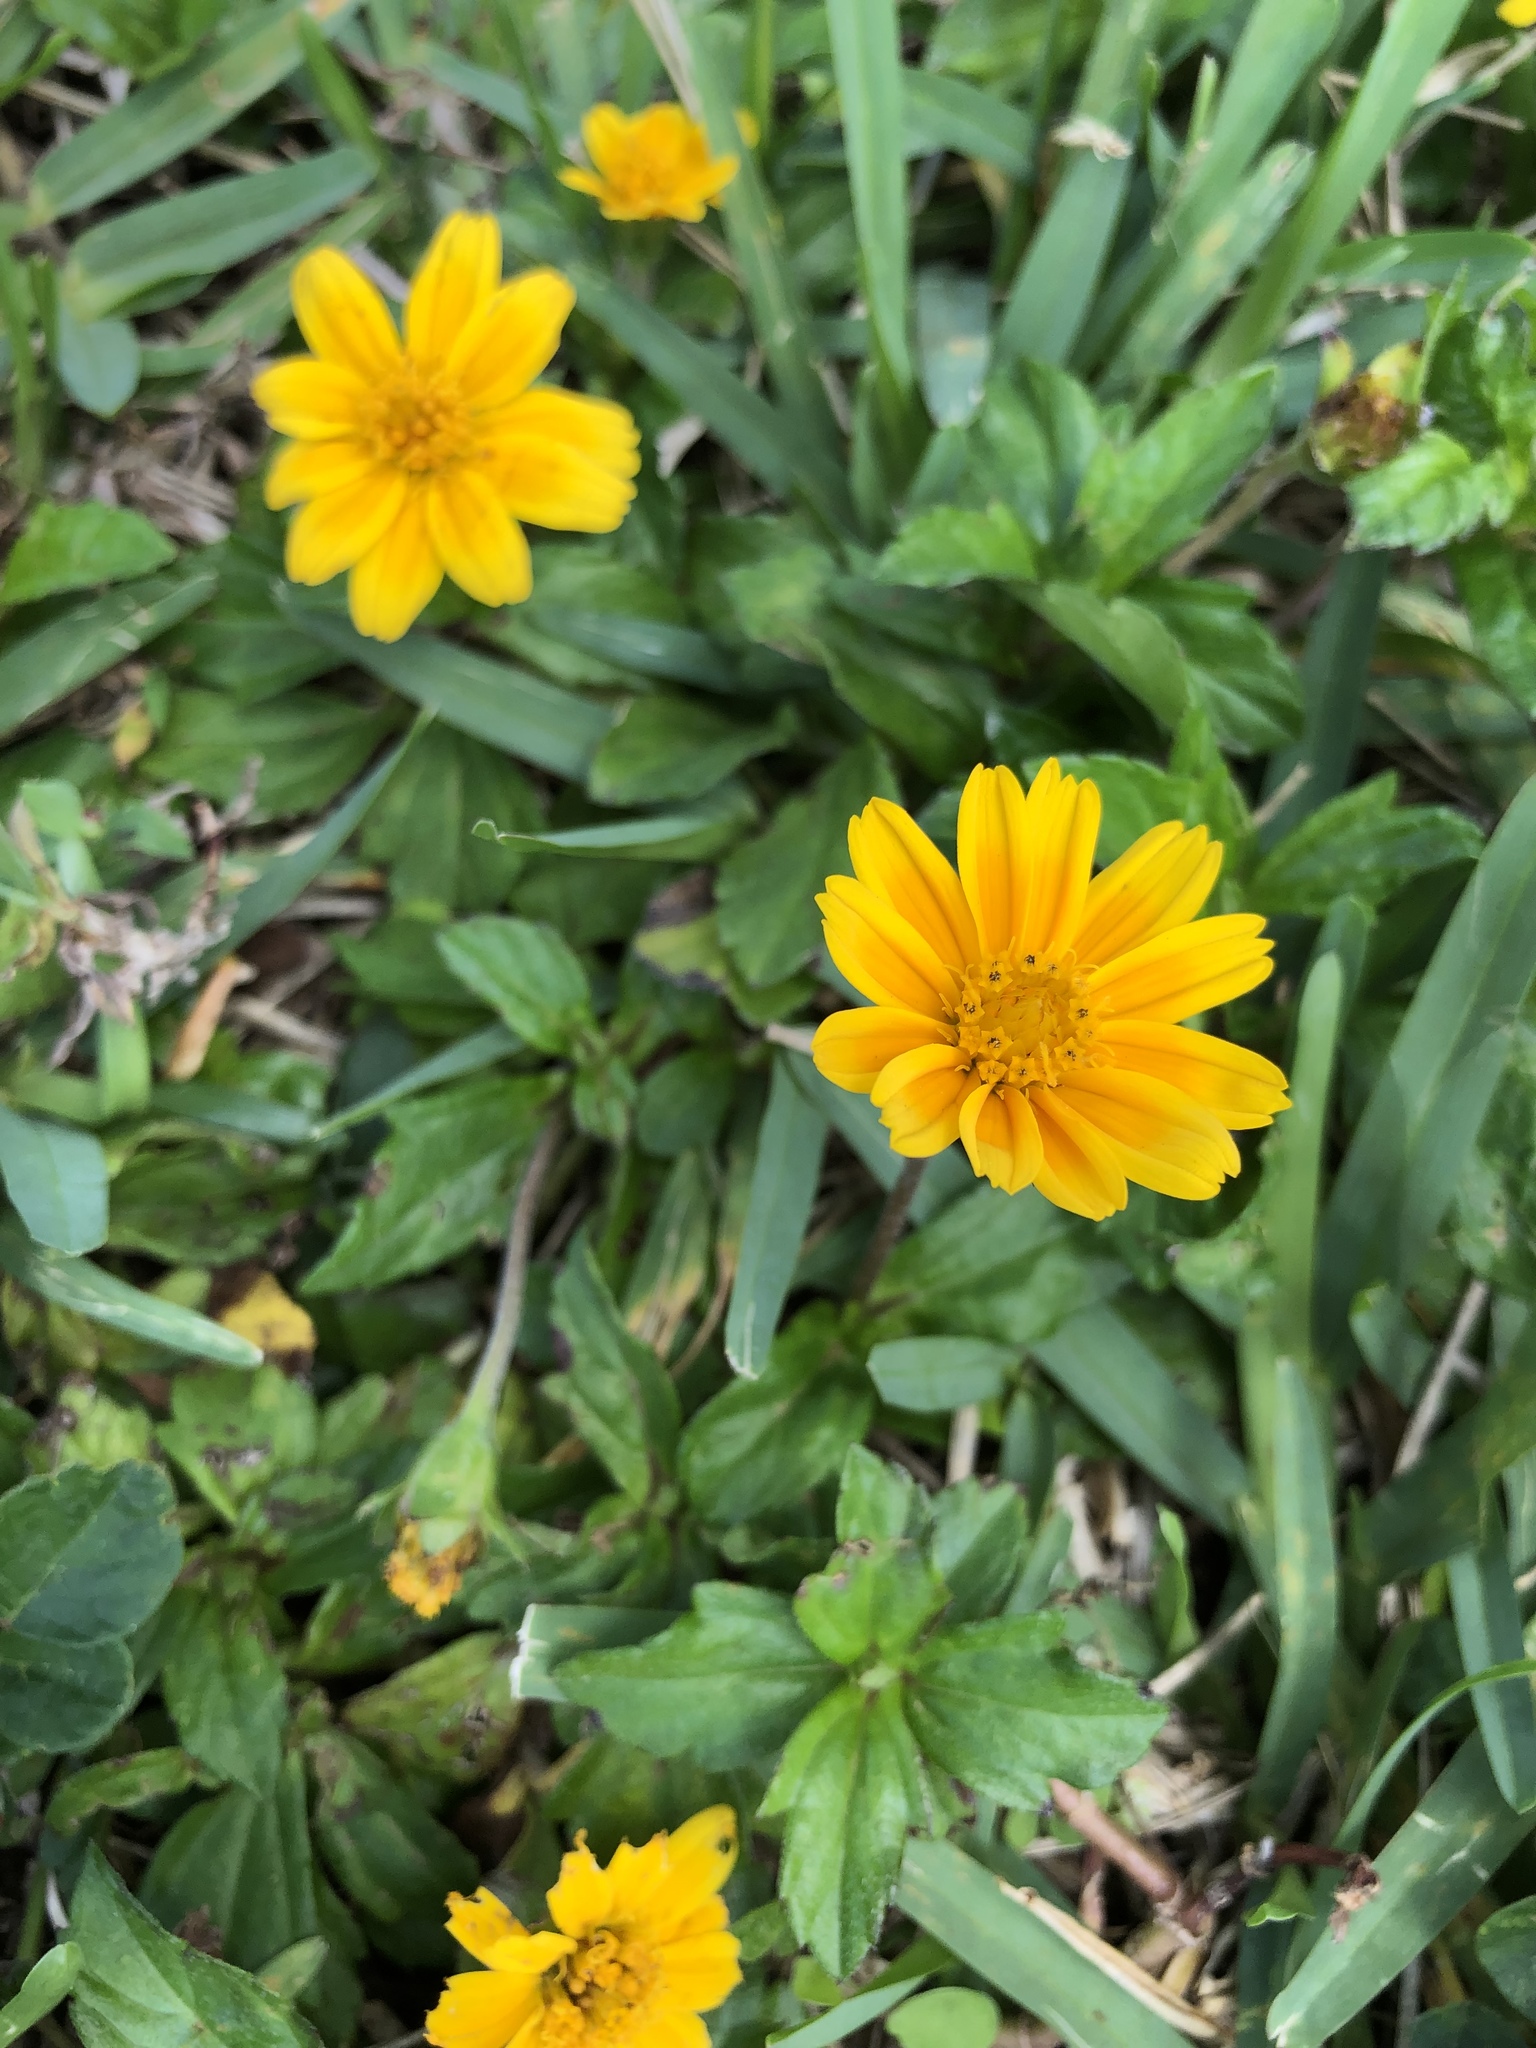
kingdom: Plantae
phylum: Tracheophyta
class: Magnoliopsida
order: Asterales
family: Asteraceae
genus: Sphagneticola
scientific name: Sphagneticola trilobata
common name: Bay biscayne creeping-oxeye
